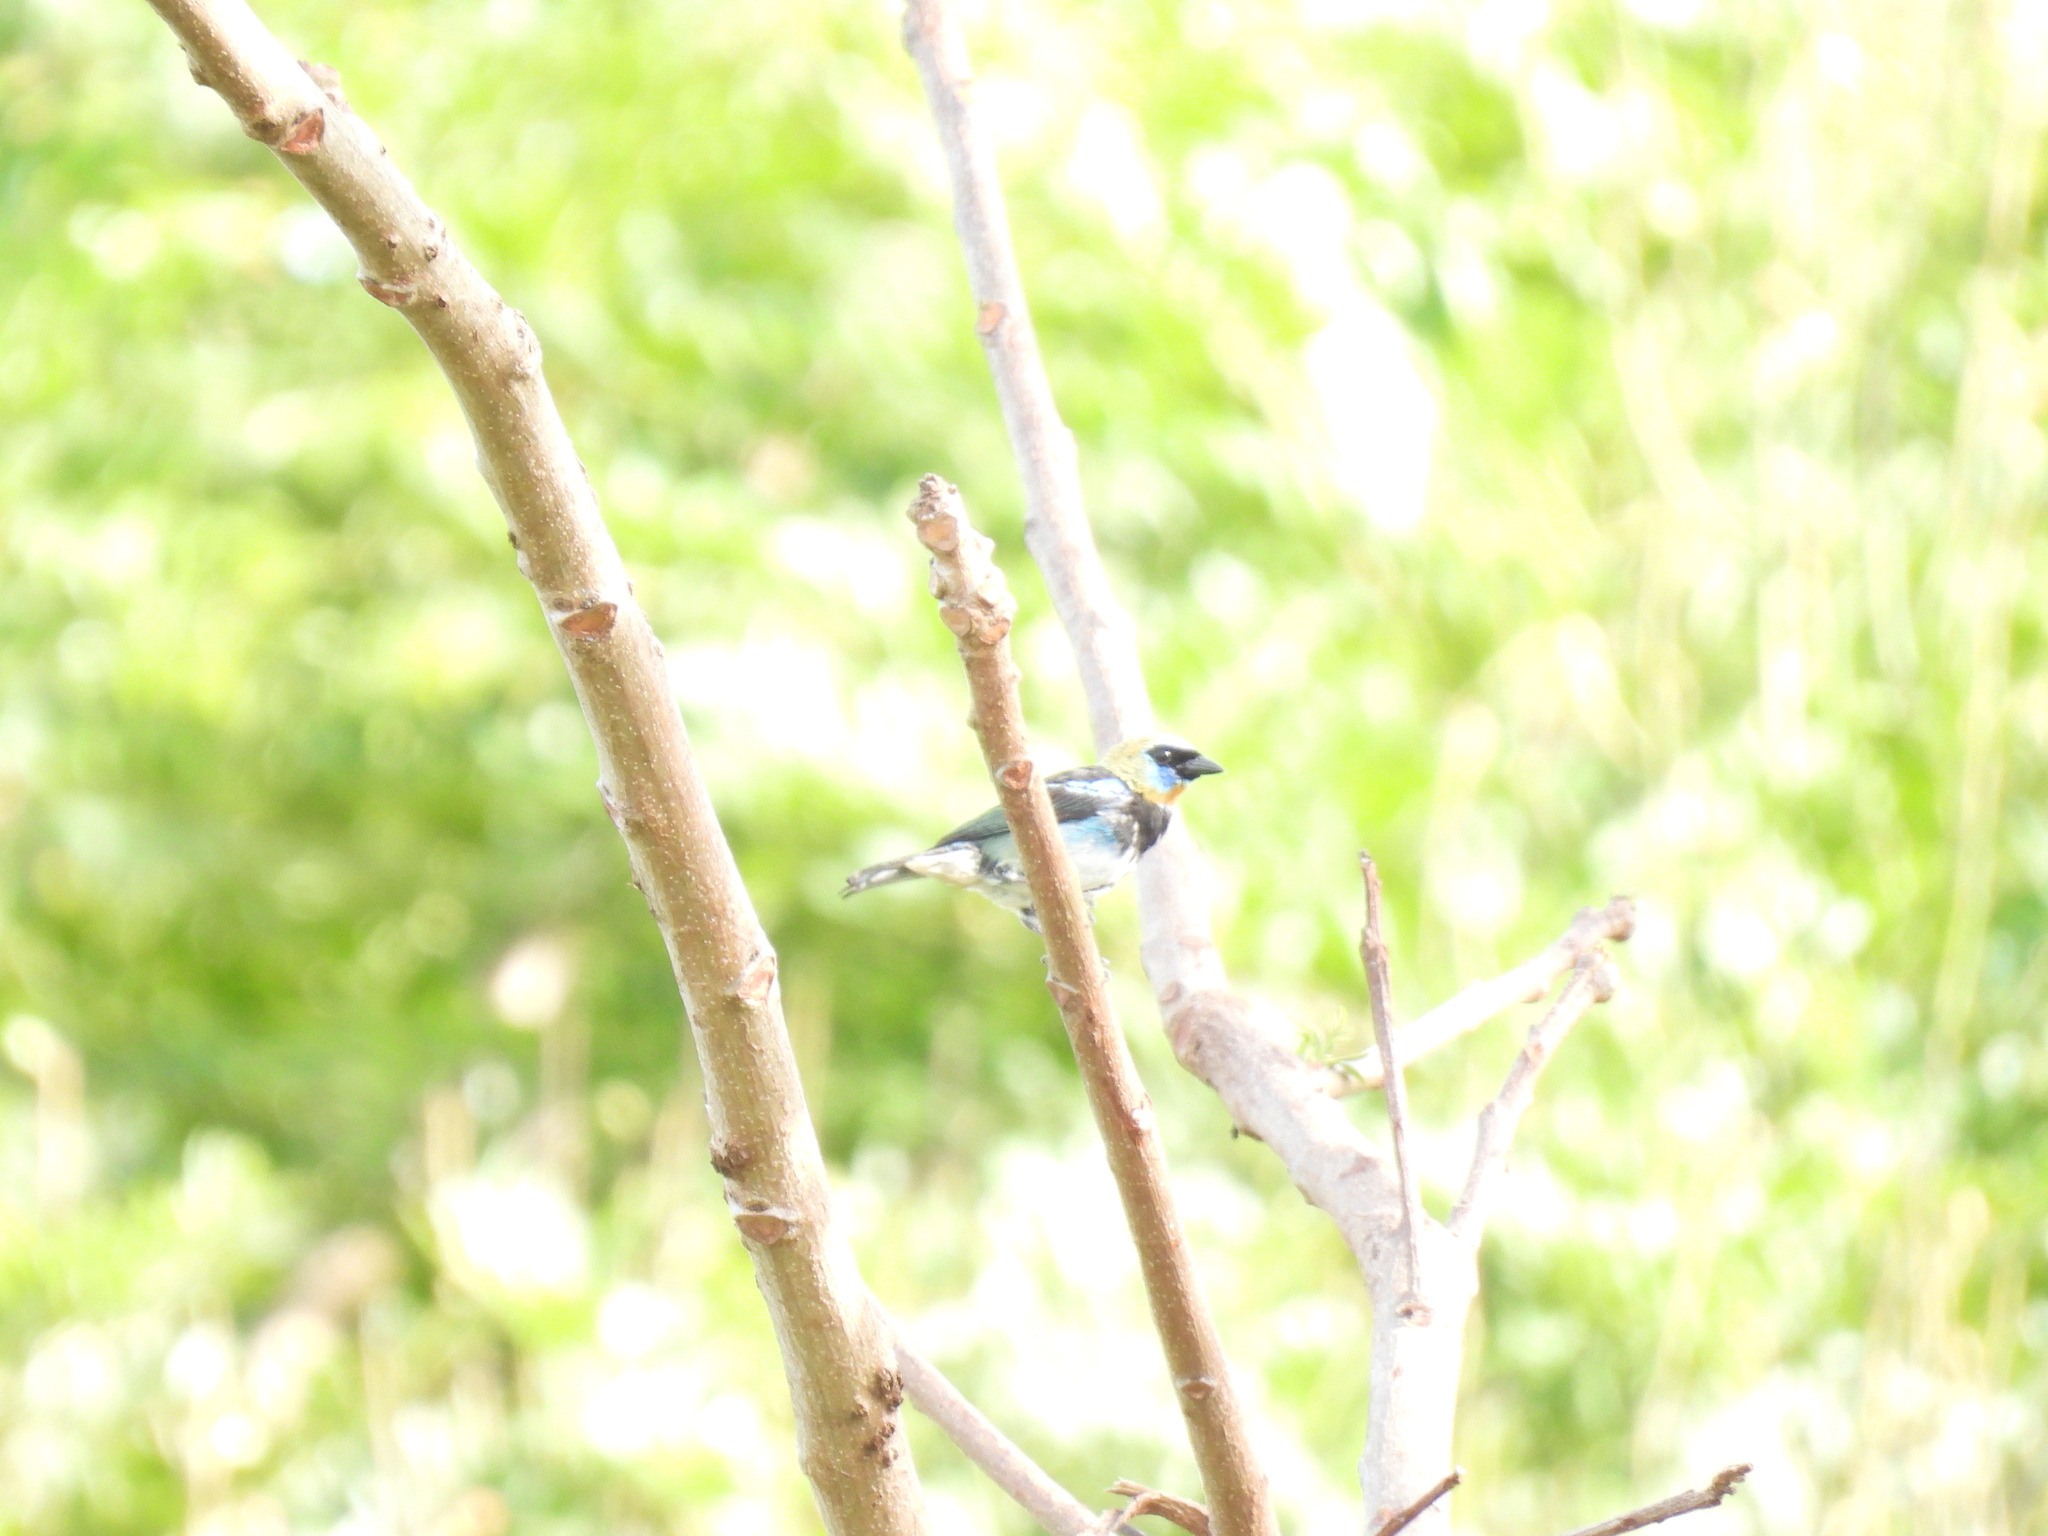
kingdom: Animalia
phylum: Chordata
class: Aves
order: Passeriformes
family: Thraupidae
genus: Stilpnia
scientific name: Stilpnia larvata
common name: Golden-hooded tanager
